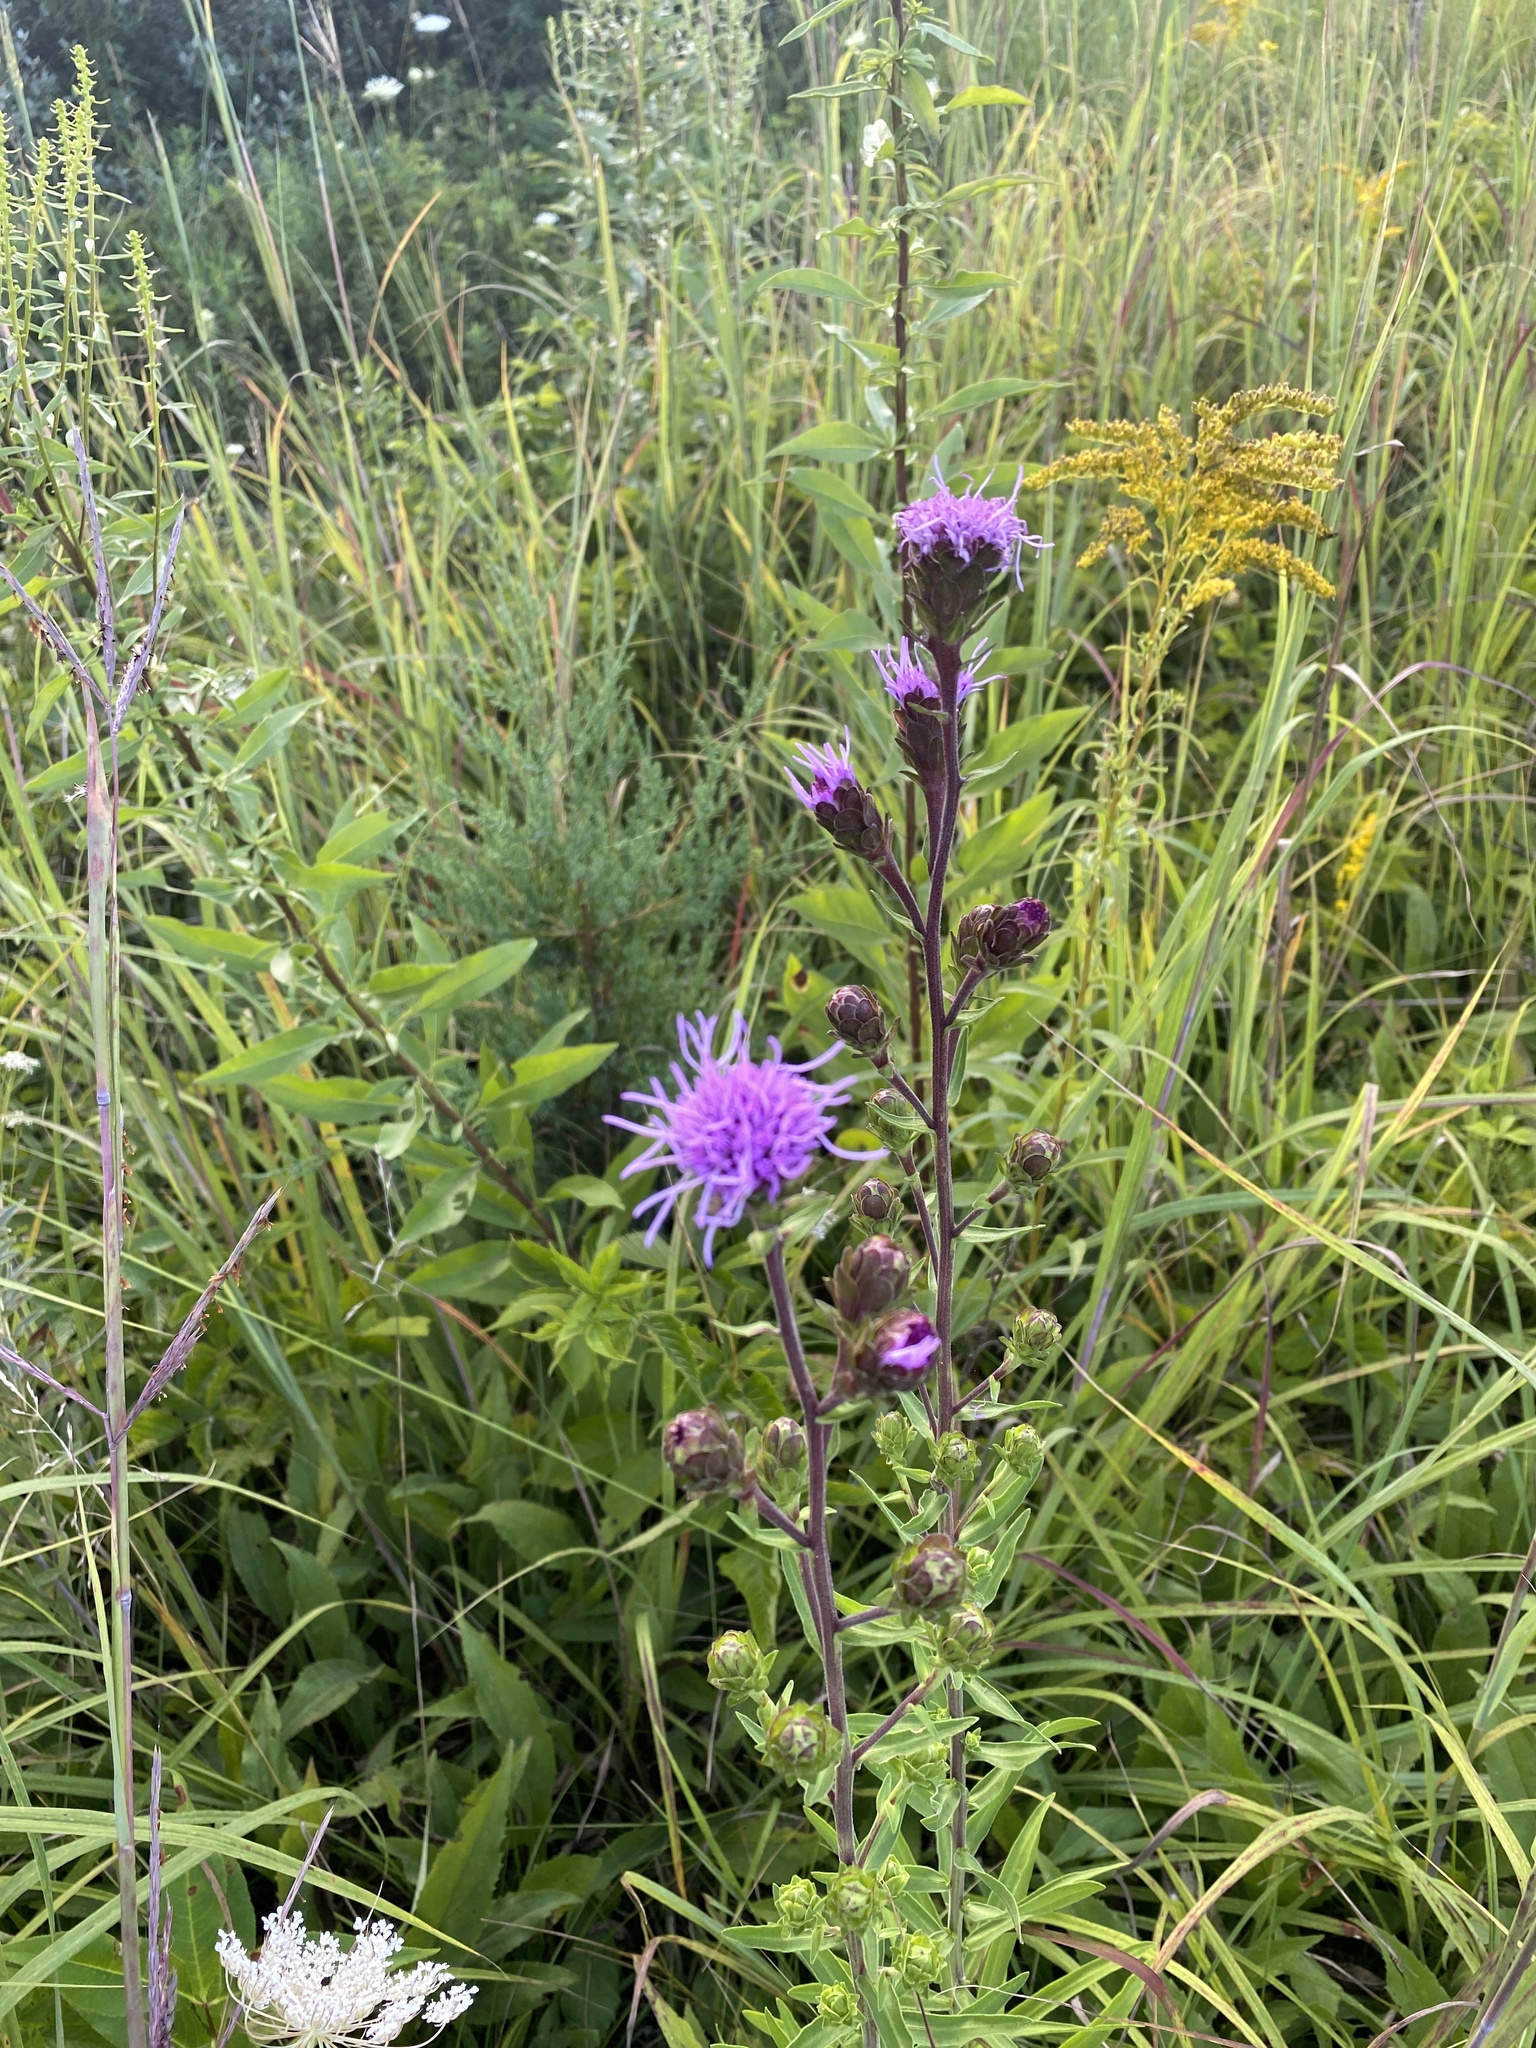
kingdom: Plantae
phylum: Tracheophyta
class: Magnoliopsida
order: Asterales
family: Asteraceae
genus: Liatris
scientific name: Liatris scariosa
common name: Northern gayfeather
